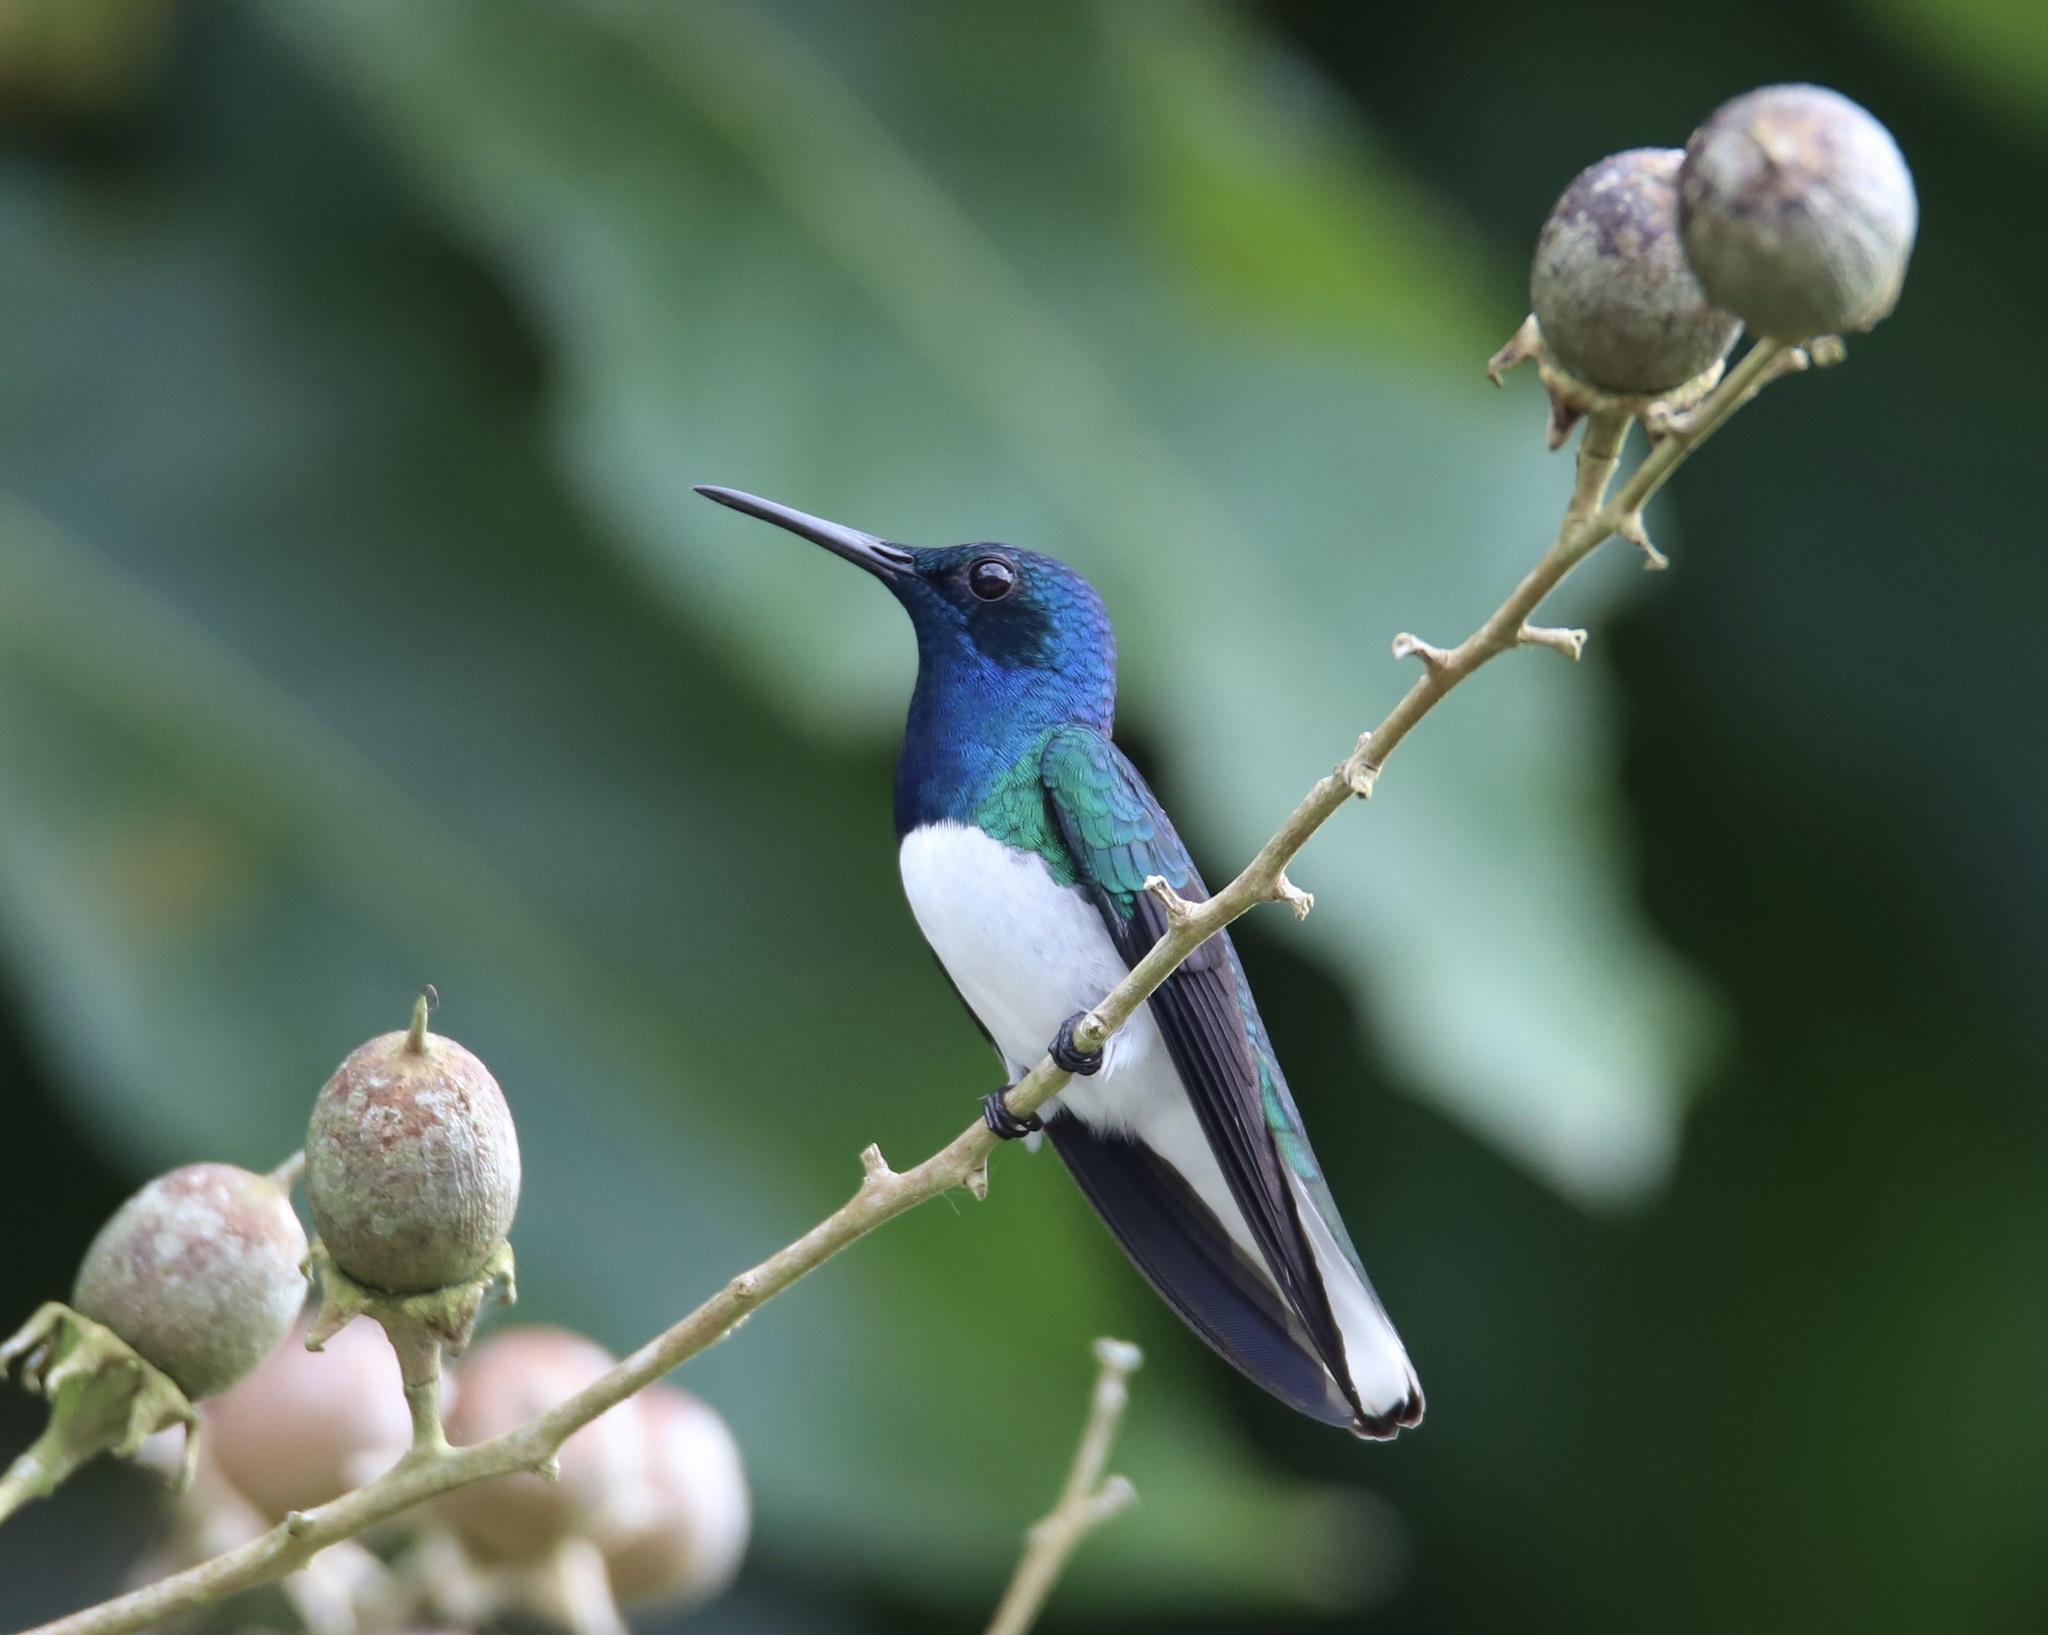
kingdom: Animalia
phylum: Chordata
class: Aves
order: Apodiformes
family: Trochilidae
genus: Florisuga
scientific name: Florisuga mellivora
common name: White-necked jacobin
